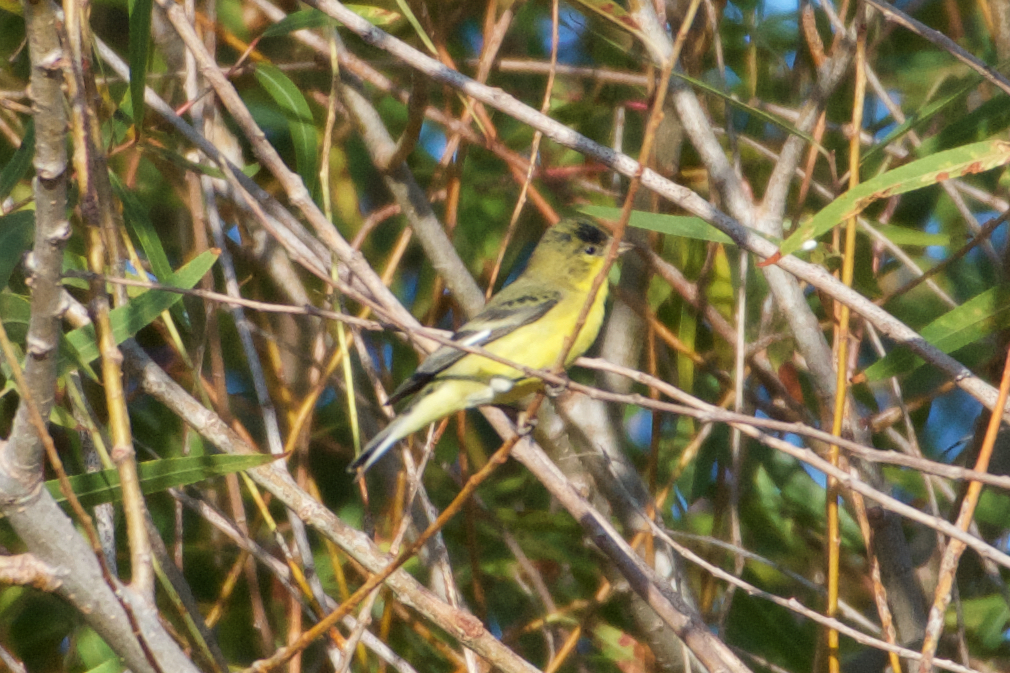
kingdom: Animalia
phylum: Chordata
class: Aves
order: Passeriformes
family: Fringillidae
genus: Spinus
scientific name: Spinus psaltria
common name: Lesser goldfinch
